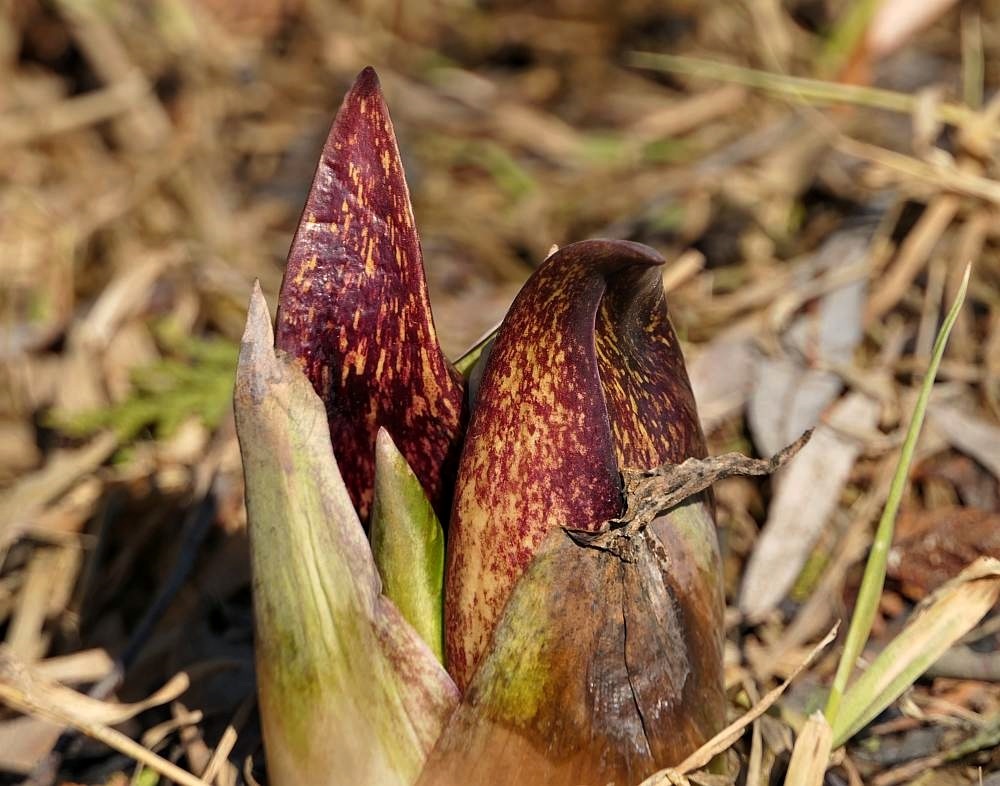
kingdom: Plantae
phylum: Tracheophyta
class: Liliopsida
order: Alismatales
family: Araceae
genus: Symplocarpus
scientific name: Symplocarpus foetidus
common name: Eastern skunk cabbage
